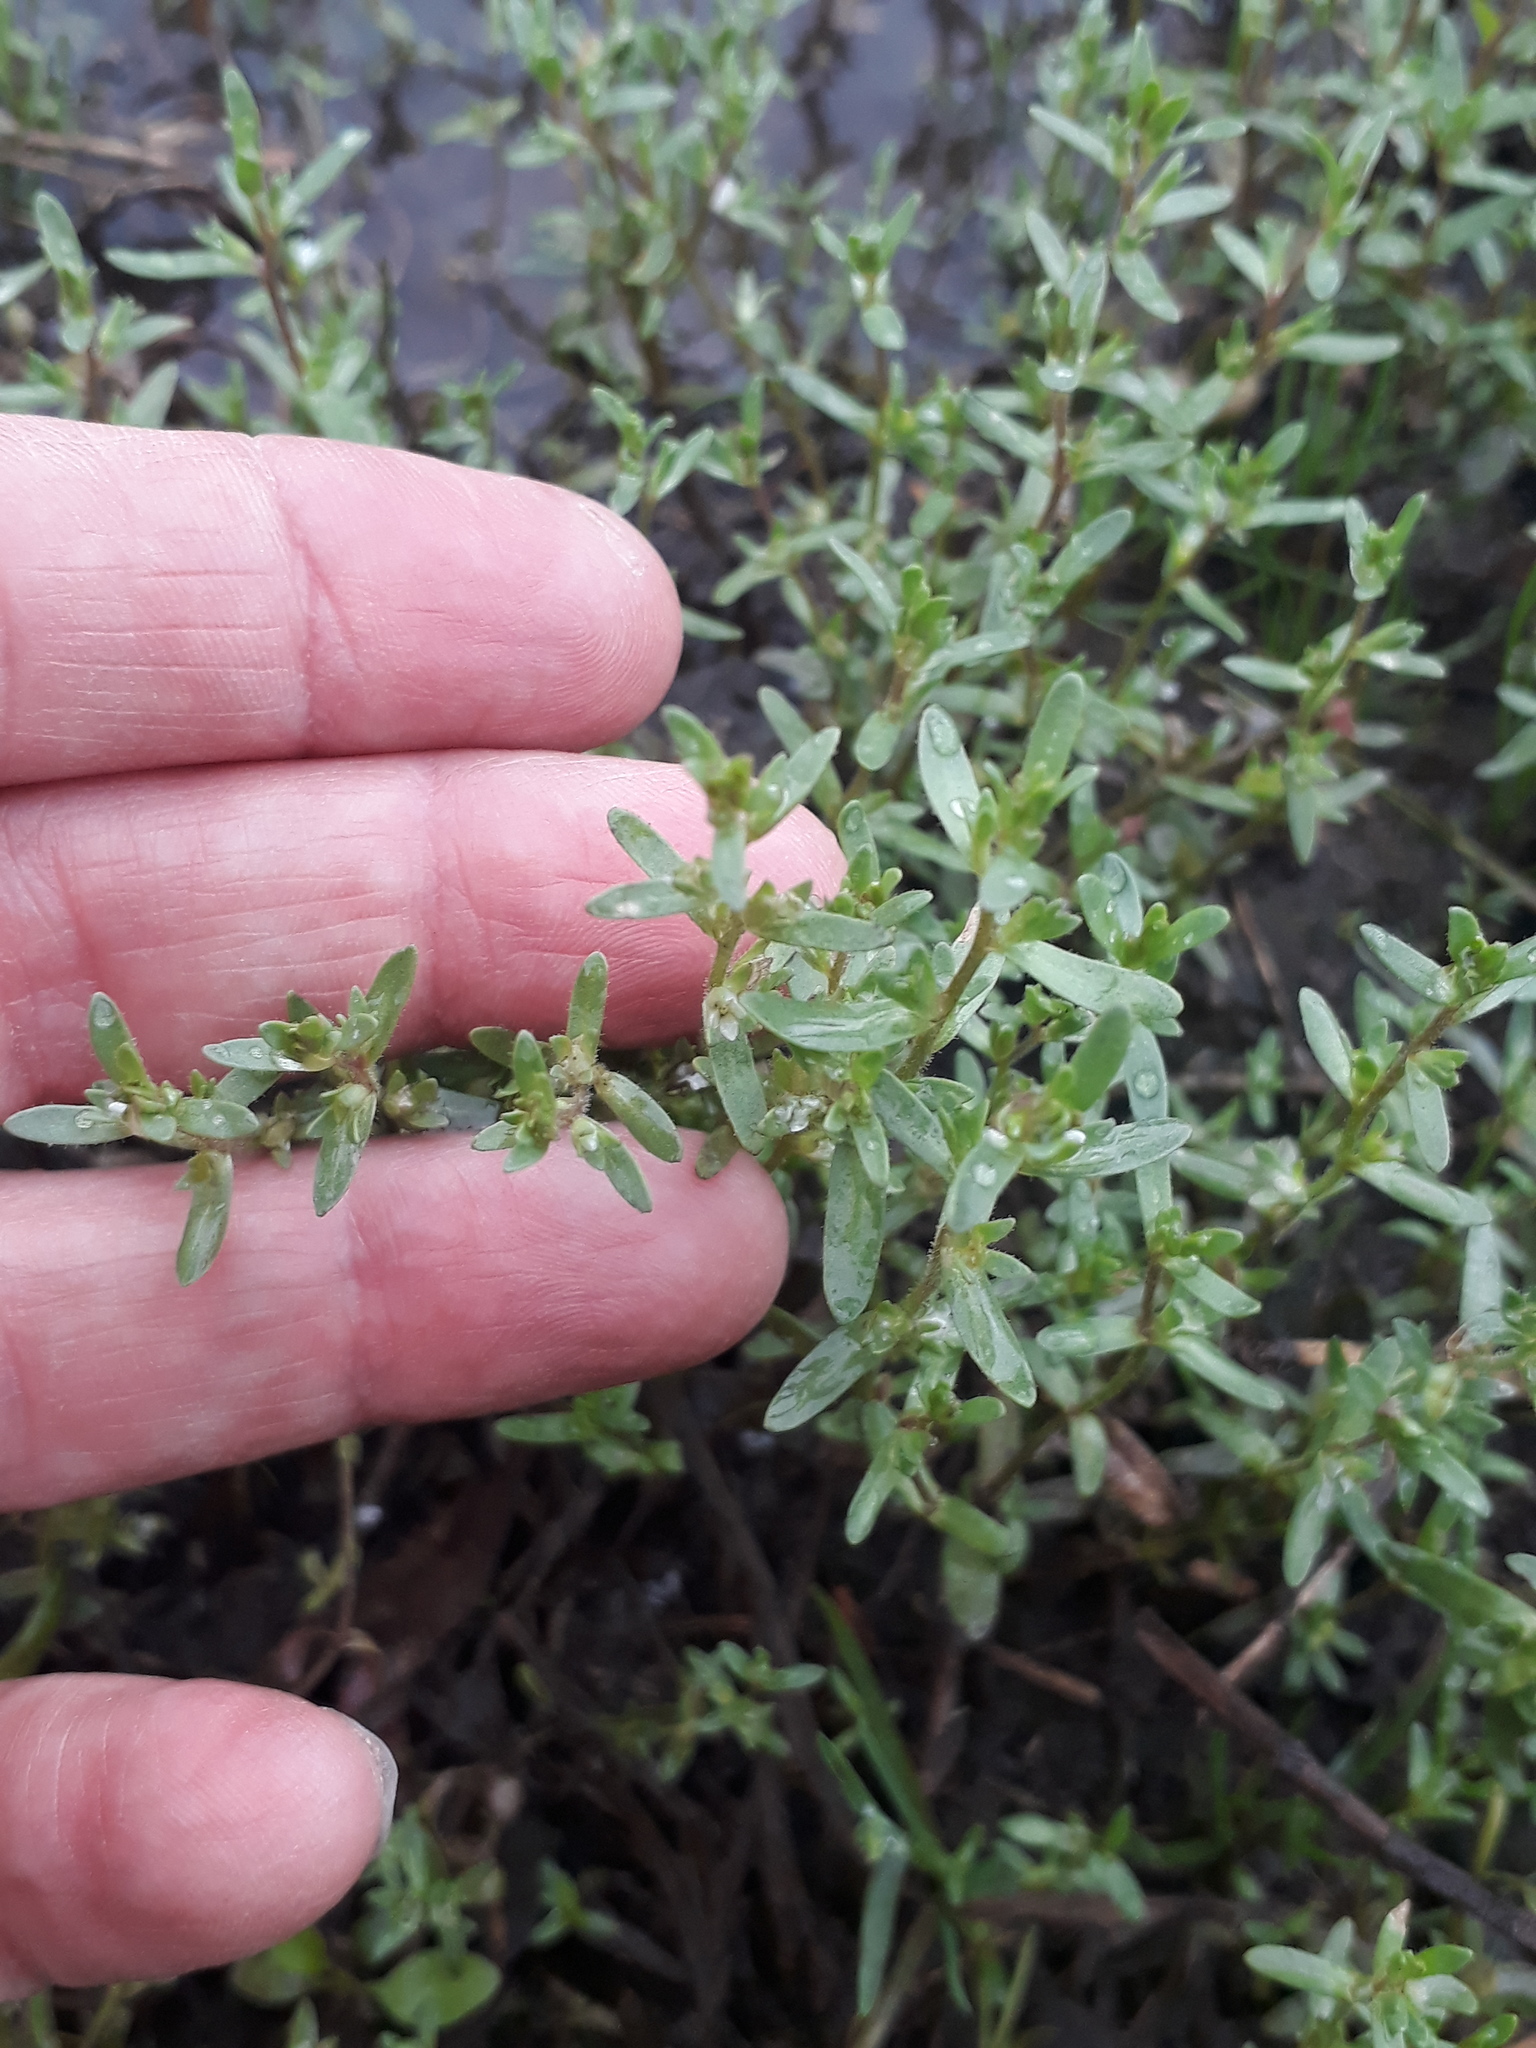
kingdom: Plantae
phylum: Tracheophyta
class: Magnoliopsida
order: Lamiales
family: Plantaginaceae
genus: Veronica
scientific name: Veronica peregrina
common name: Neckweed
